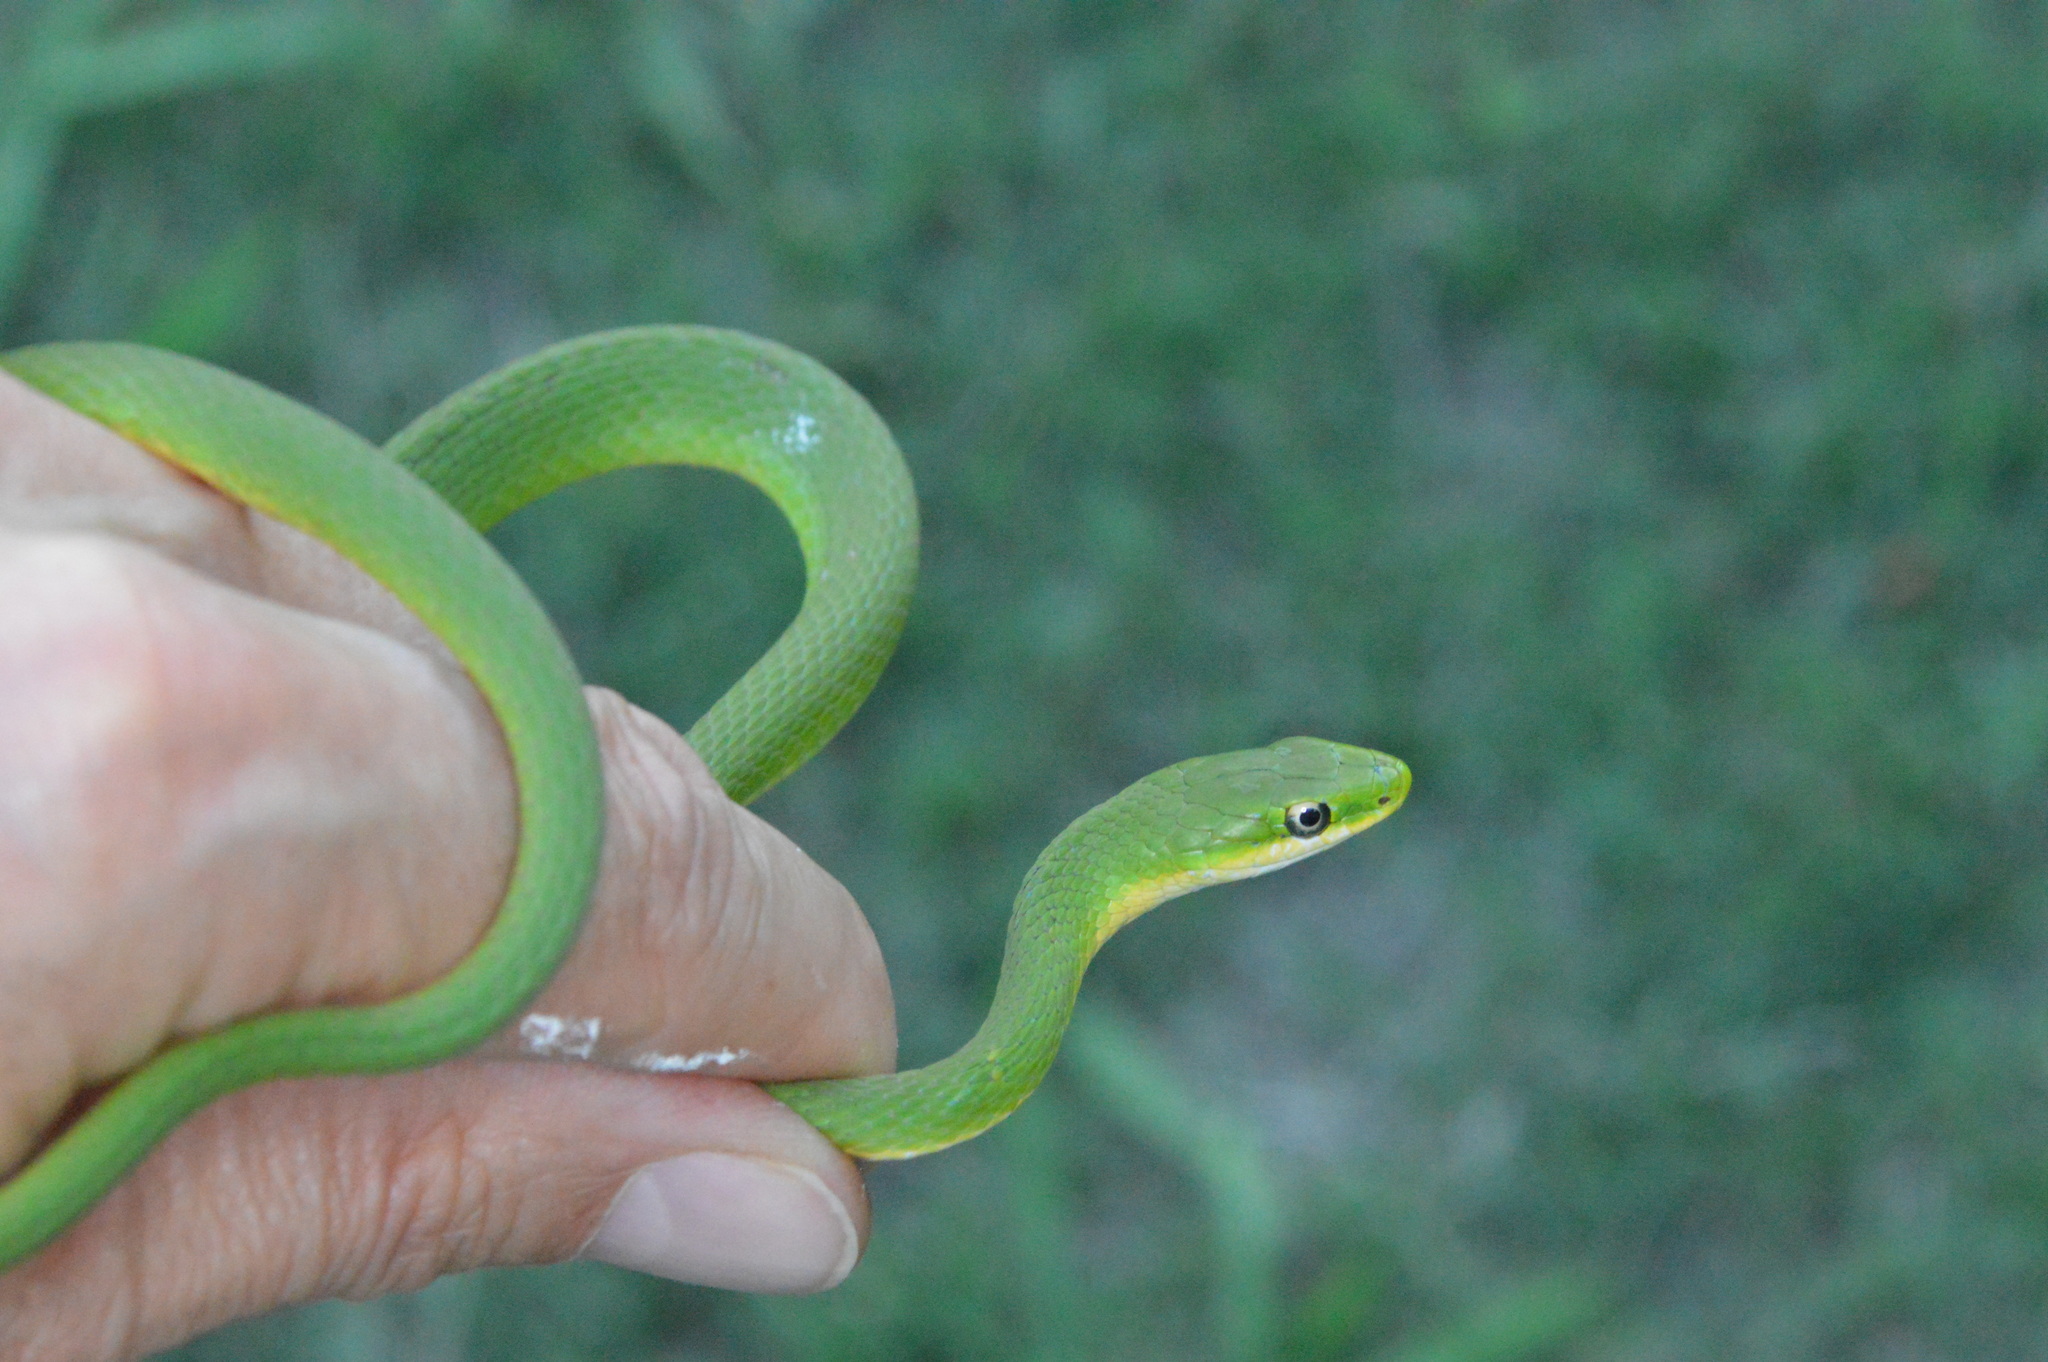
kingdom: Animalia
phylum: Chordata
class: Squamata
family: Colubridae
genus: Opheodrys
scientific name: Opheodrys aestivus
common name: Rough greensnake
